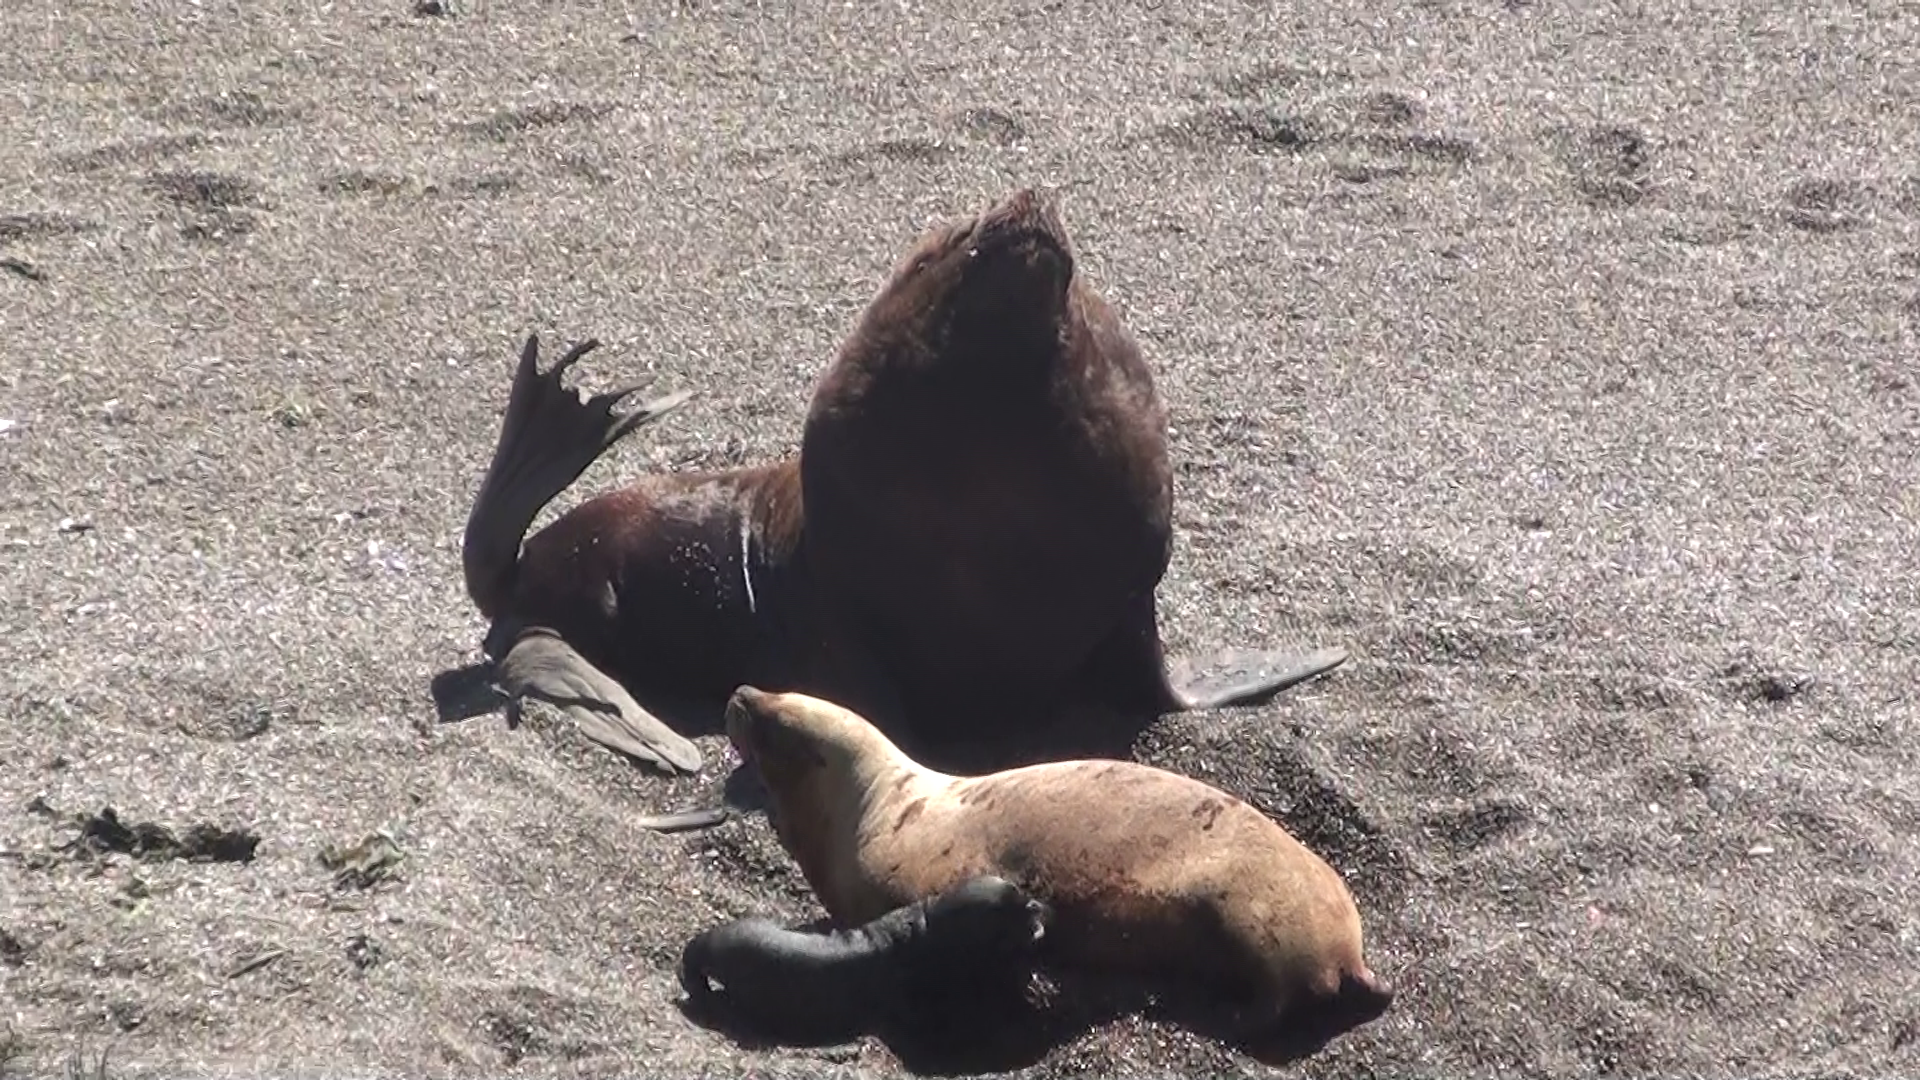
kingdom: Animalia
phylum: Chordata
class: Mammalia
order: Carnivora
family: Otariidae
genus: Otaria
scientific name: Otaria byronia
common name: South american sea lion
